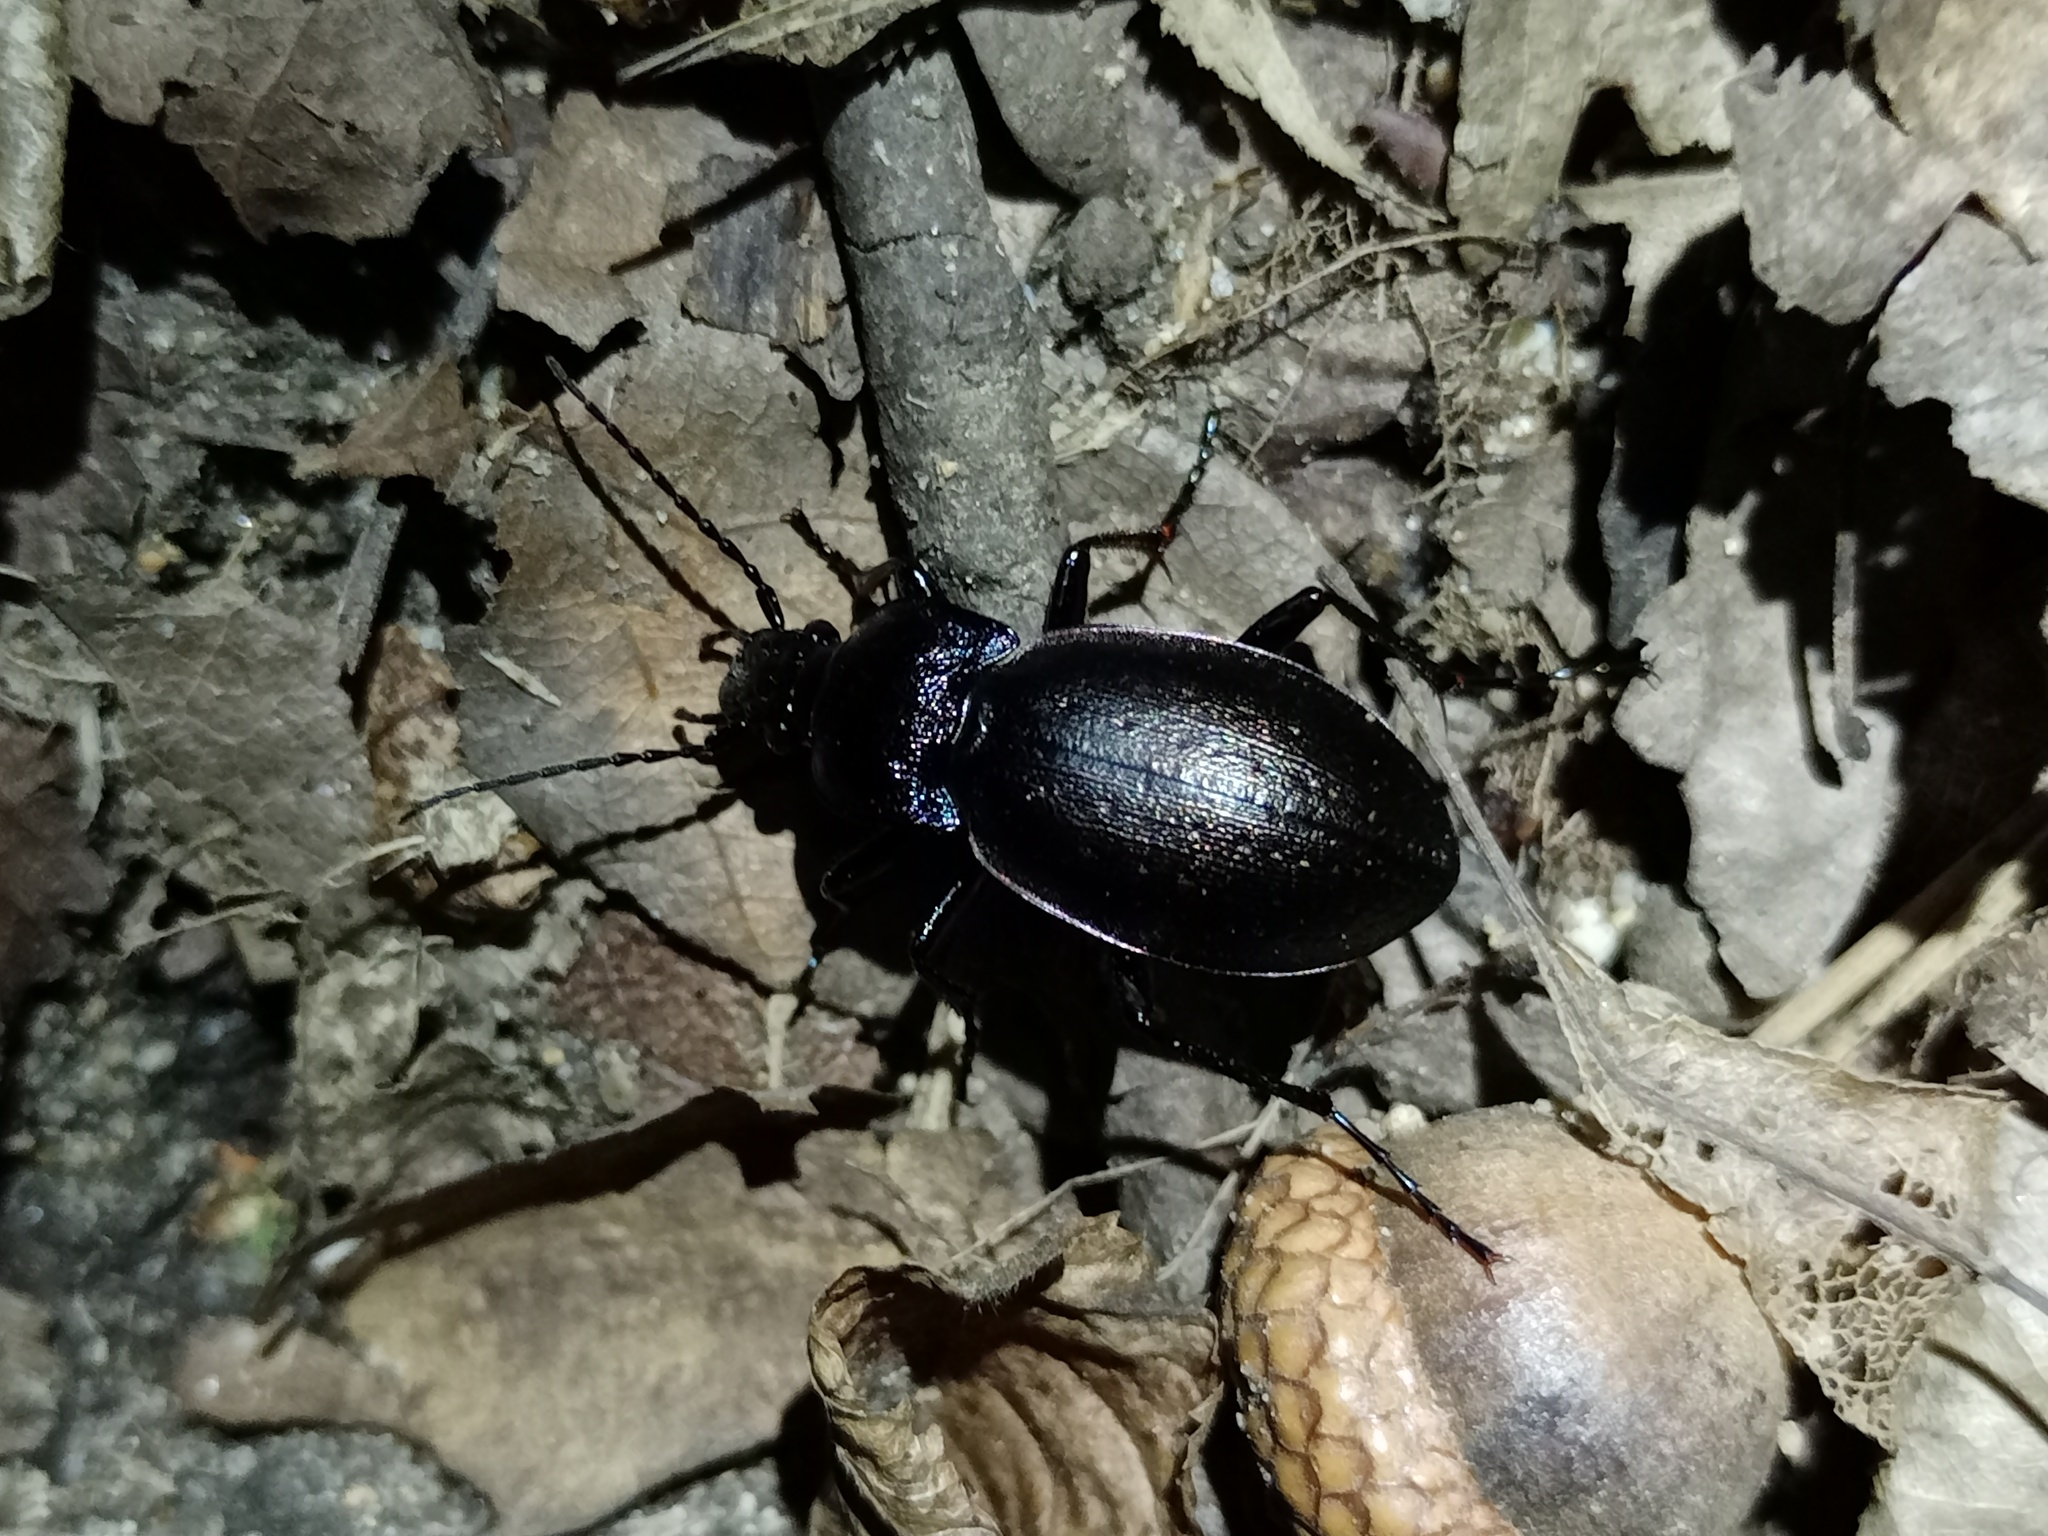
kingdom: Animalia
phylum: Arthropoda
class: Insecta
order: Coleoptera
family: Carabidae
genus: Carabus
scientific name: Carabus nemoralis
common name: European ground beetle
